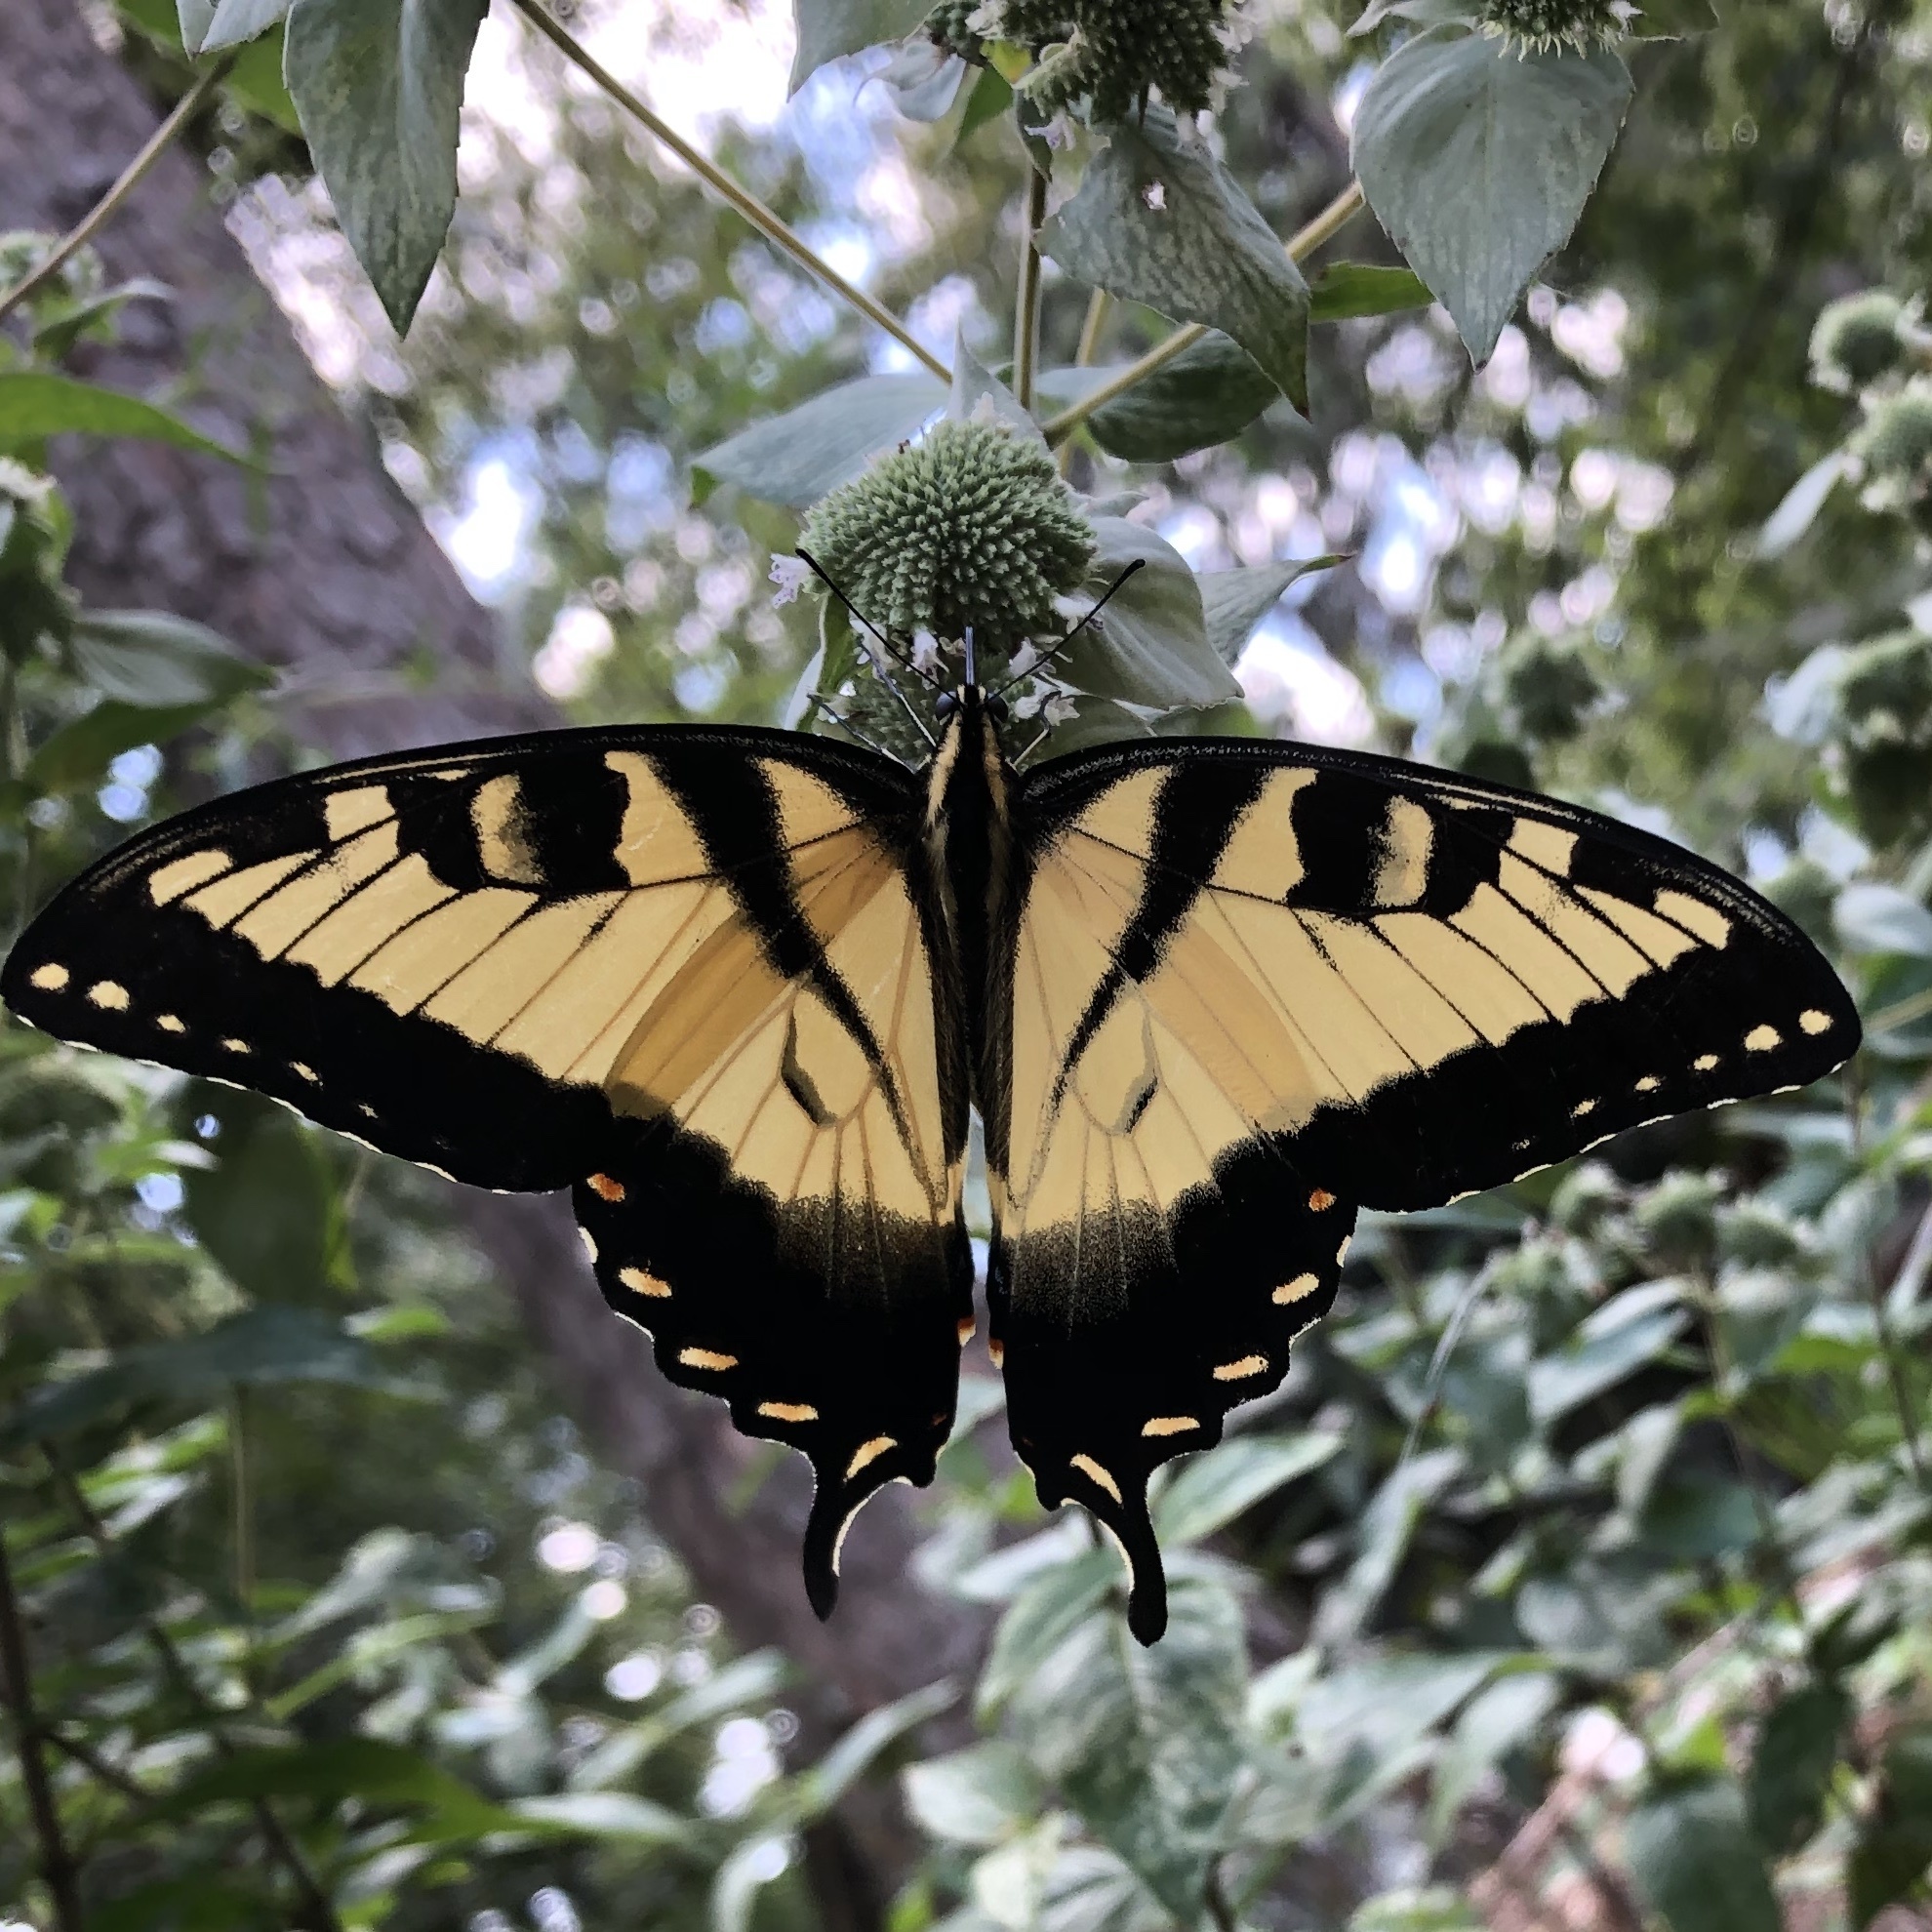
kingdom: Animalia
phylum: Arthropoda
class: Insecta
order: Lepidoptera
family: Papilionidae
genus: Papilio
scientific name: Papilio glaucus
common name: Tiger swallowtail
